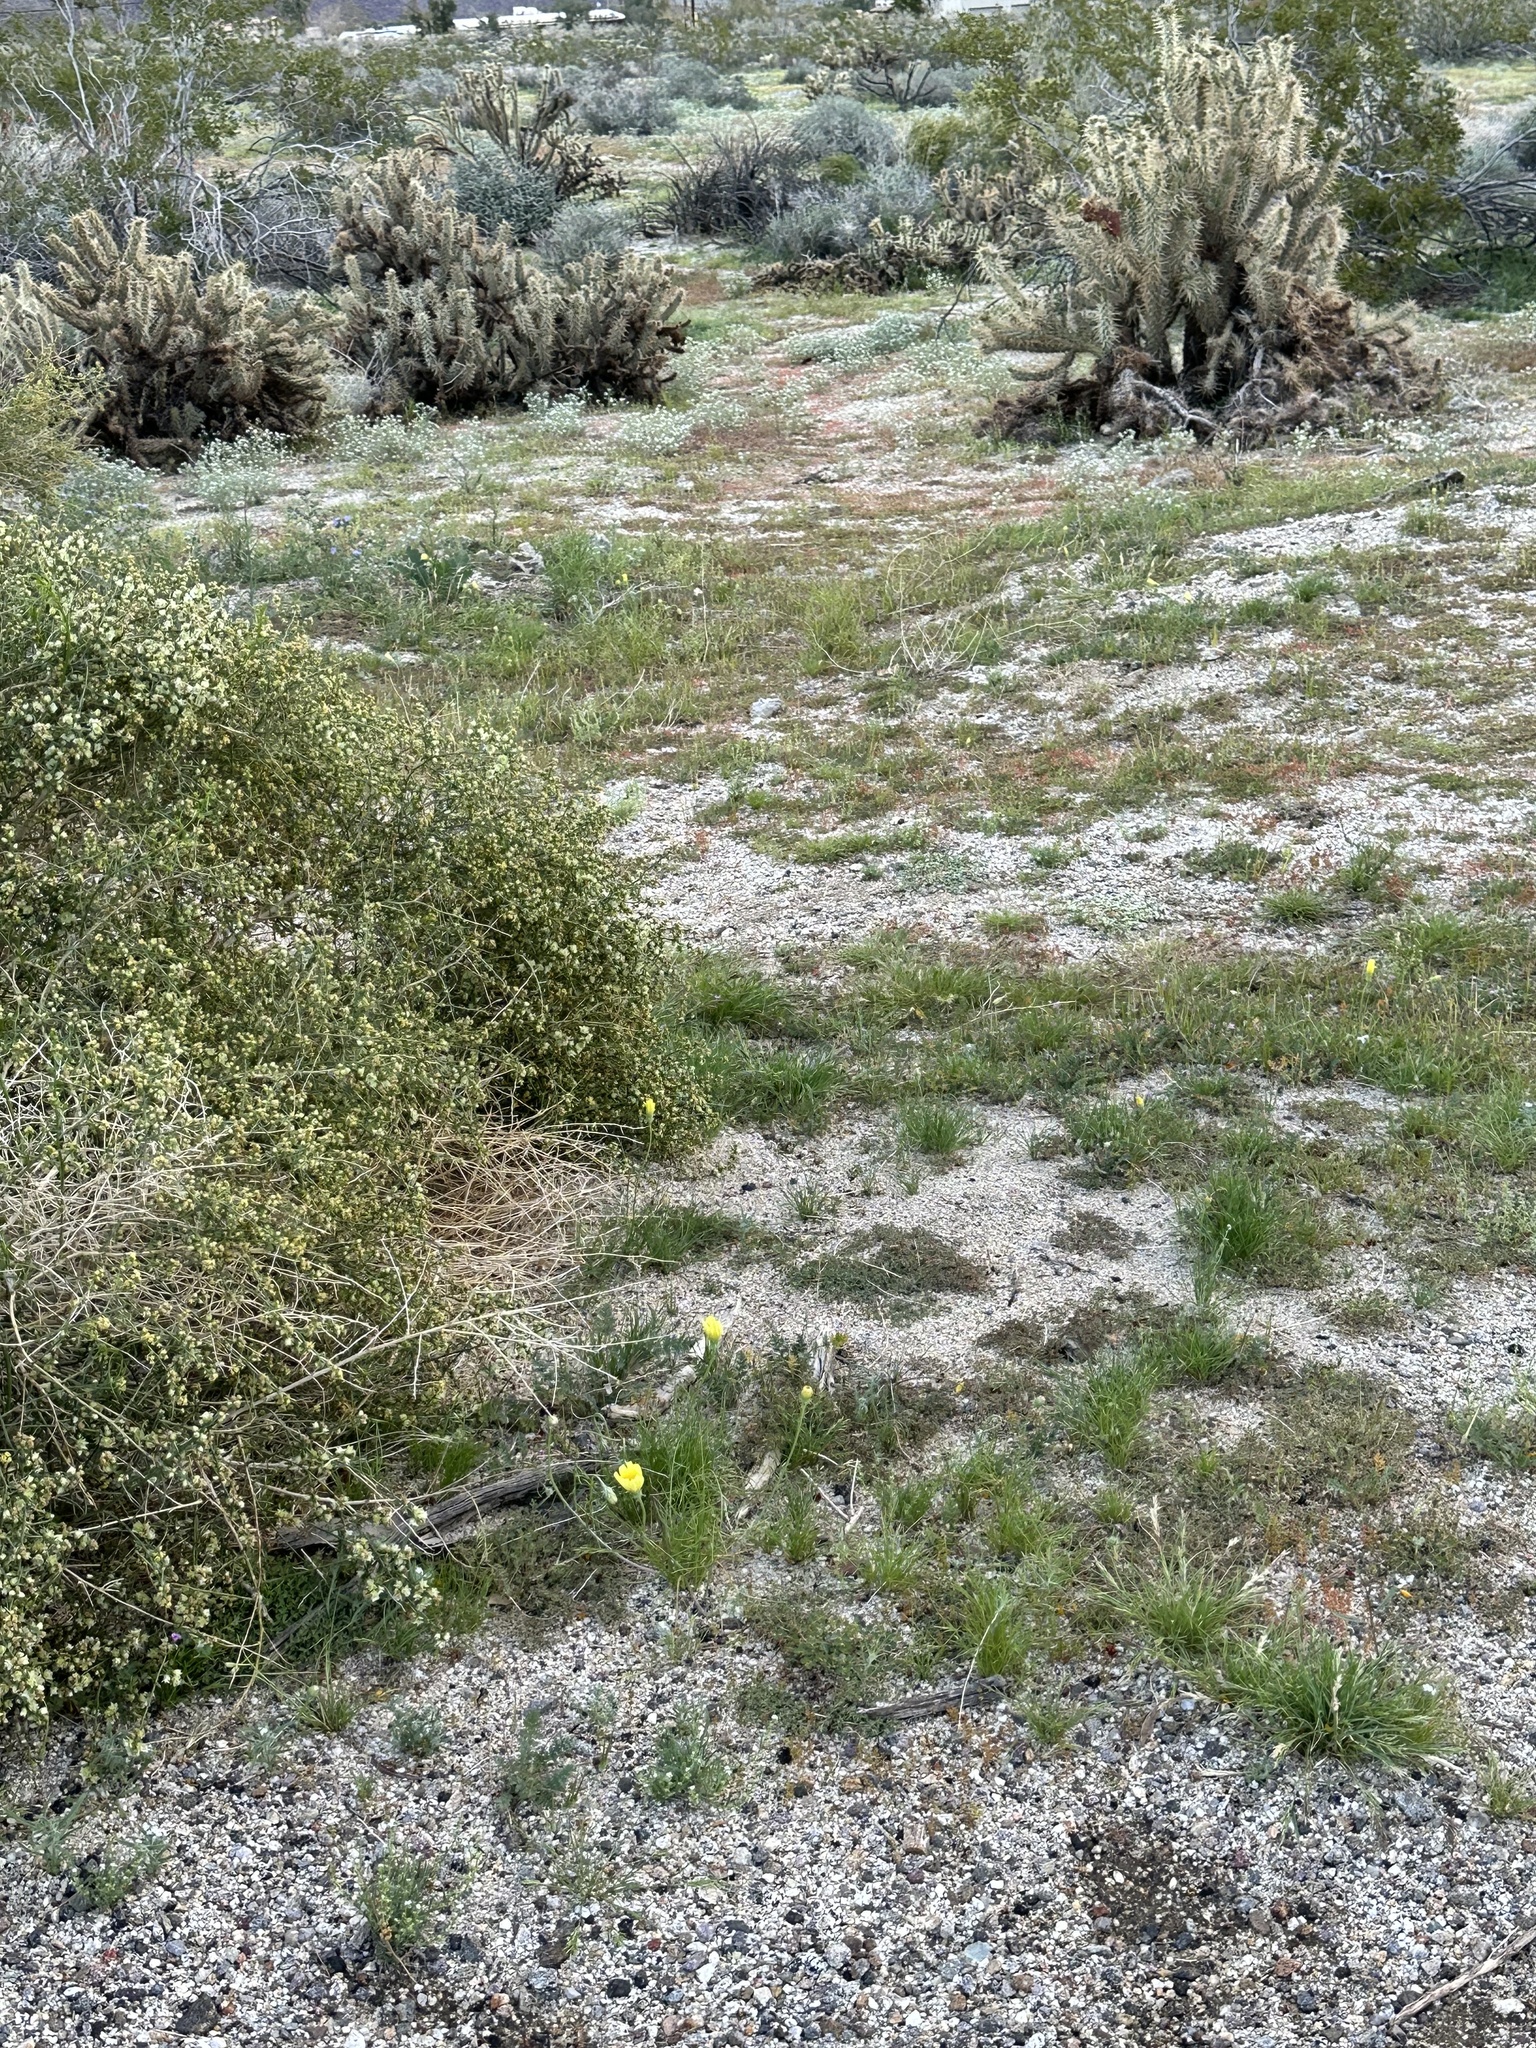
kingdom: Plantae
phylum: Tracheophyta
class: Magnoliopsida
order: Asterales
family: Asteraceae
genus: Malacothrix
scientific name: Malacothrix glabrata
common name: Smooth desert-dandelion
